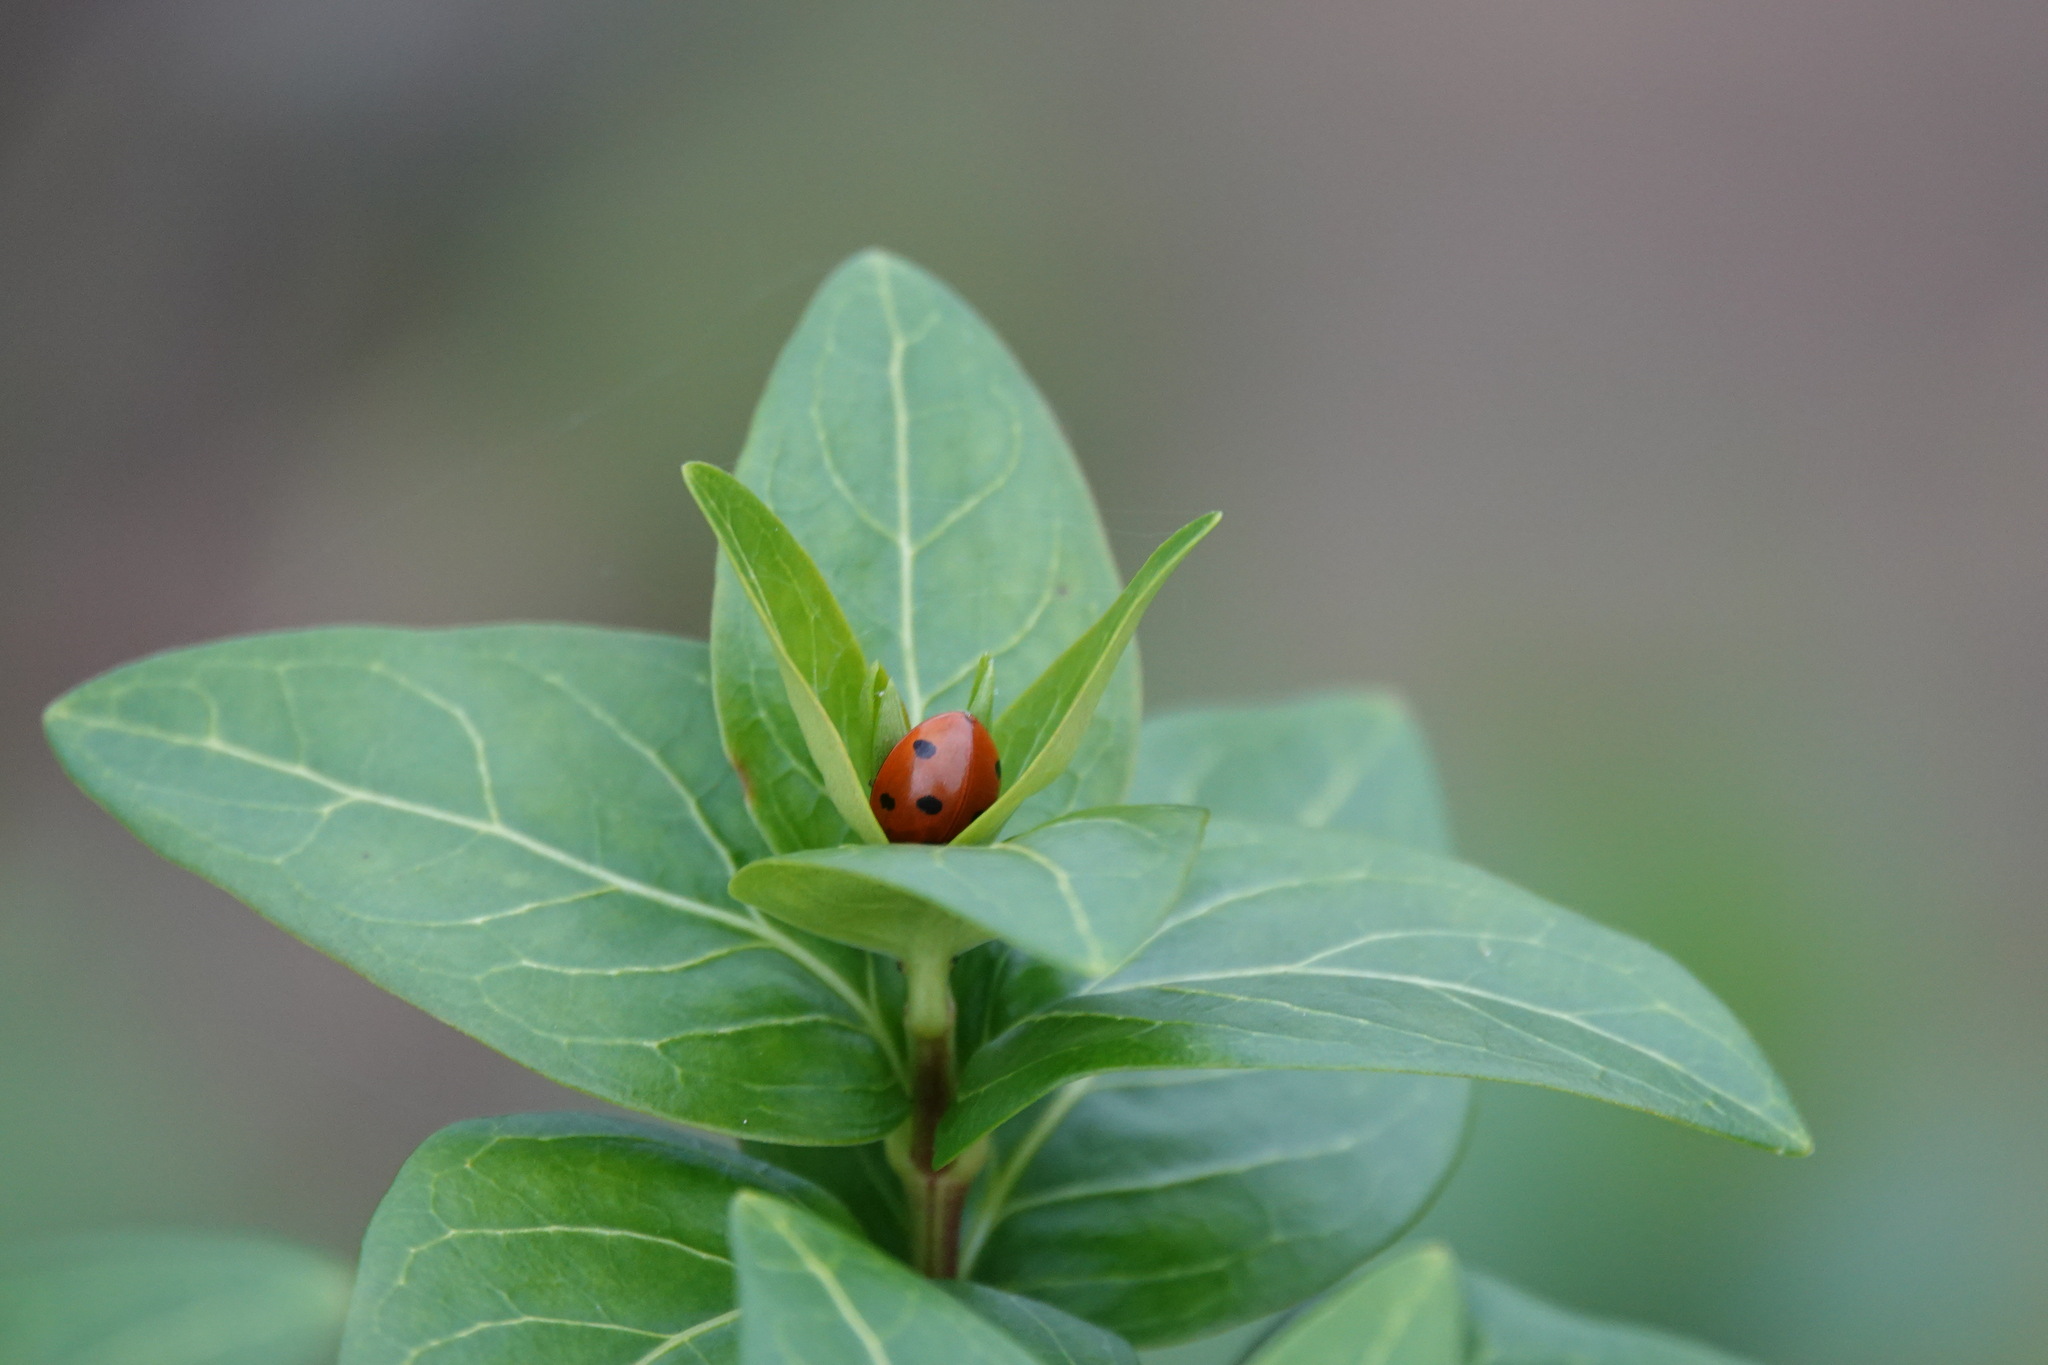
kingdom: Animalia
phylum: Arthropoda
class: Insecta
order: Coleoptera
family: Coccinellidae
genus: Coccinella
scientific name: Coccinella septempunctata
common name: Sevenspotted lady beetle
